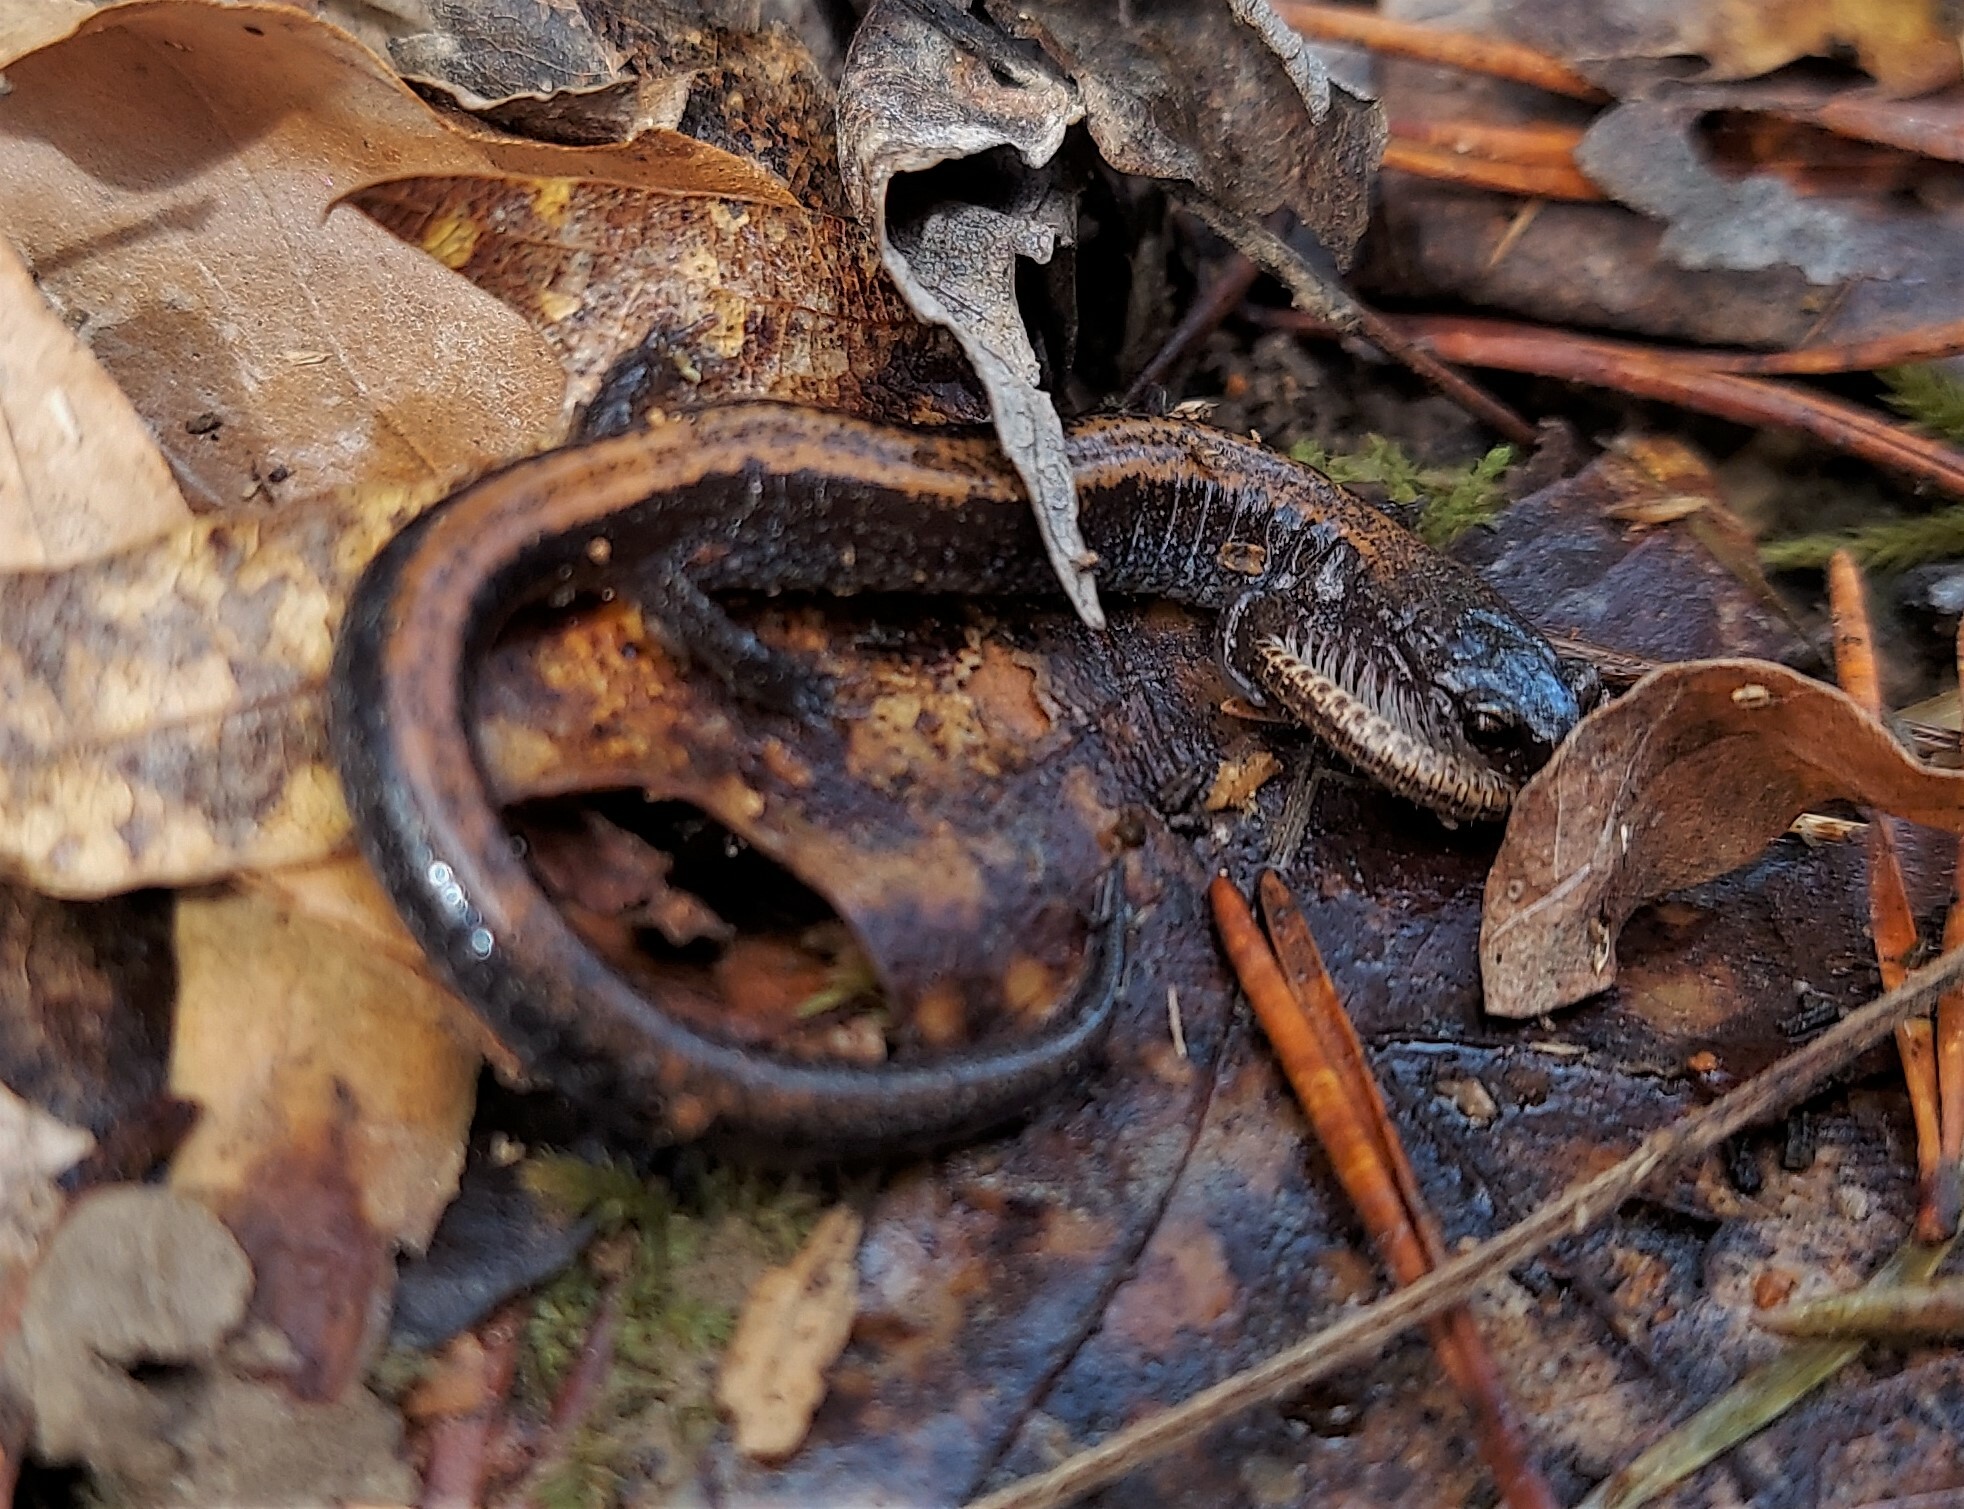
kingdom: Animalia
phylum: Chordata
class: Amphibia
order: Caudata
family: Plethodontidae
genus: Plethodon
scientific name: Plethodon cinereus
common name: Redback salamander
